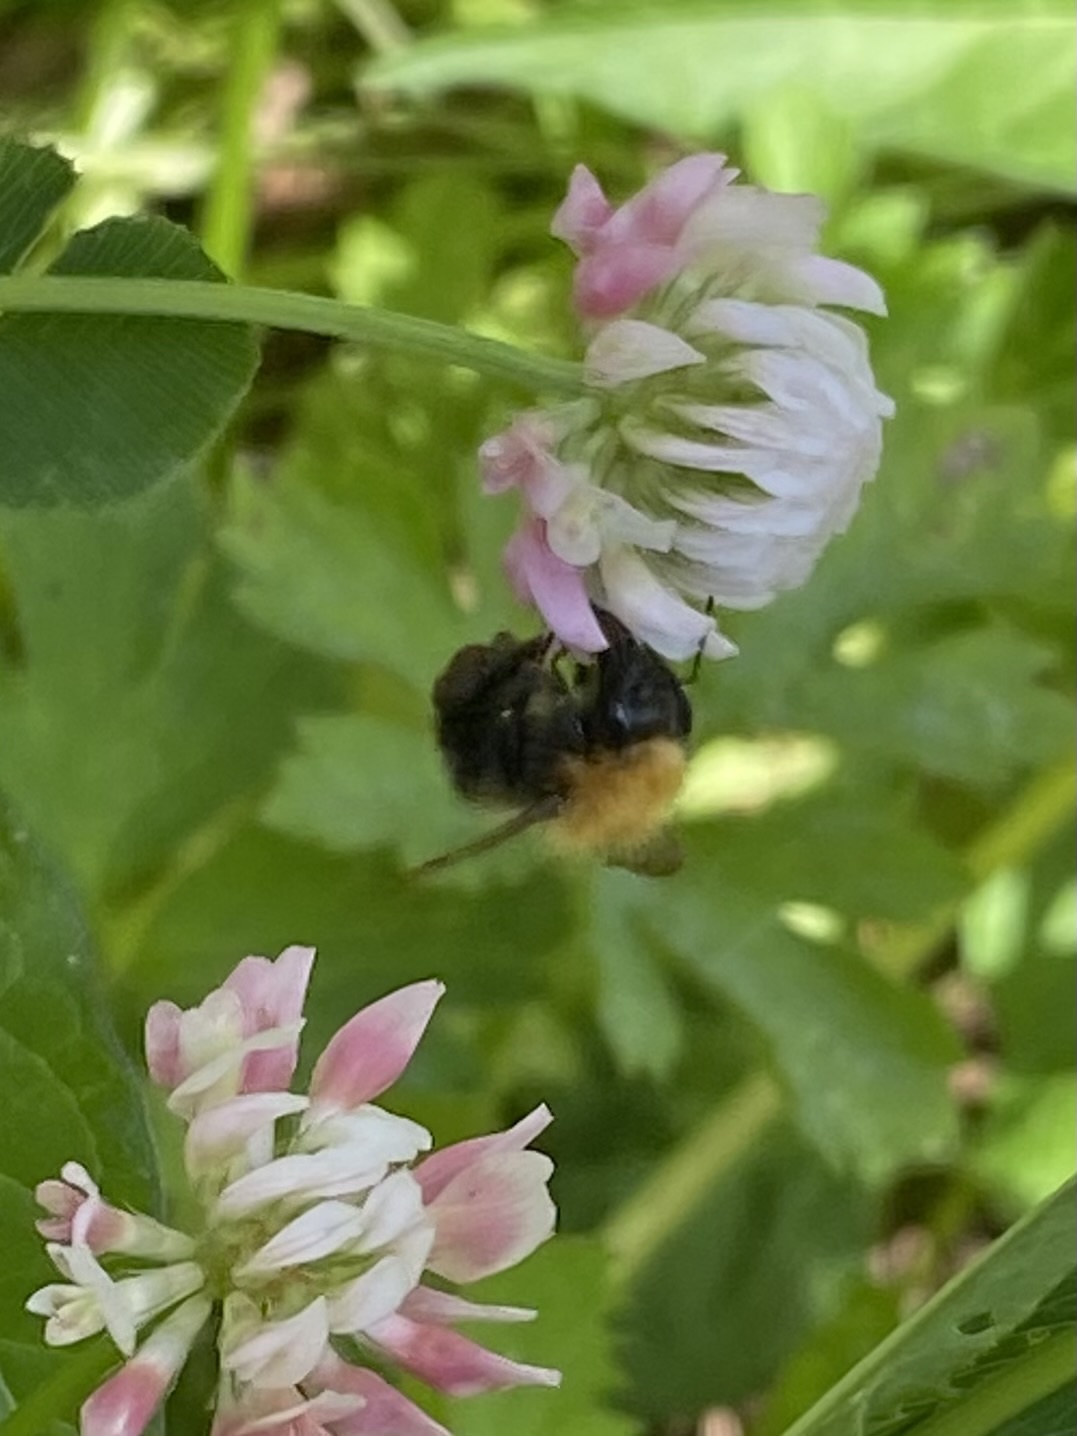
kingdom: Animalia
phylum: Arthropoda
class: Insecta
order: Hymenoptera
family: Apidae
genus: Bombus
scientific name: Bombus pascuorum
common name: Common carder bee
